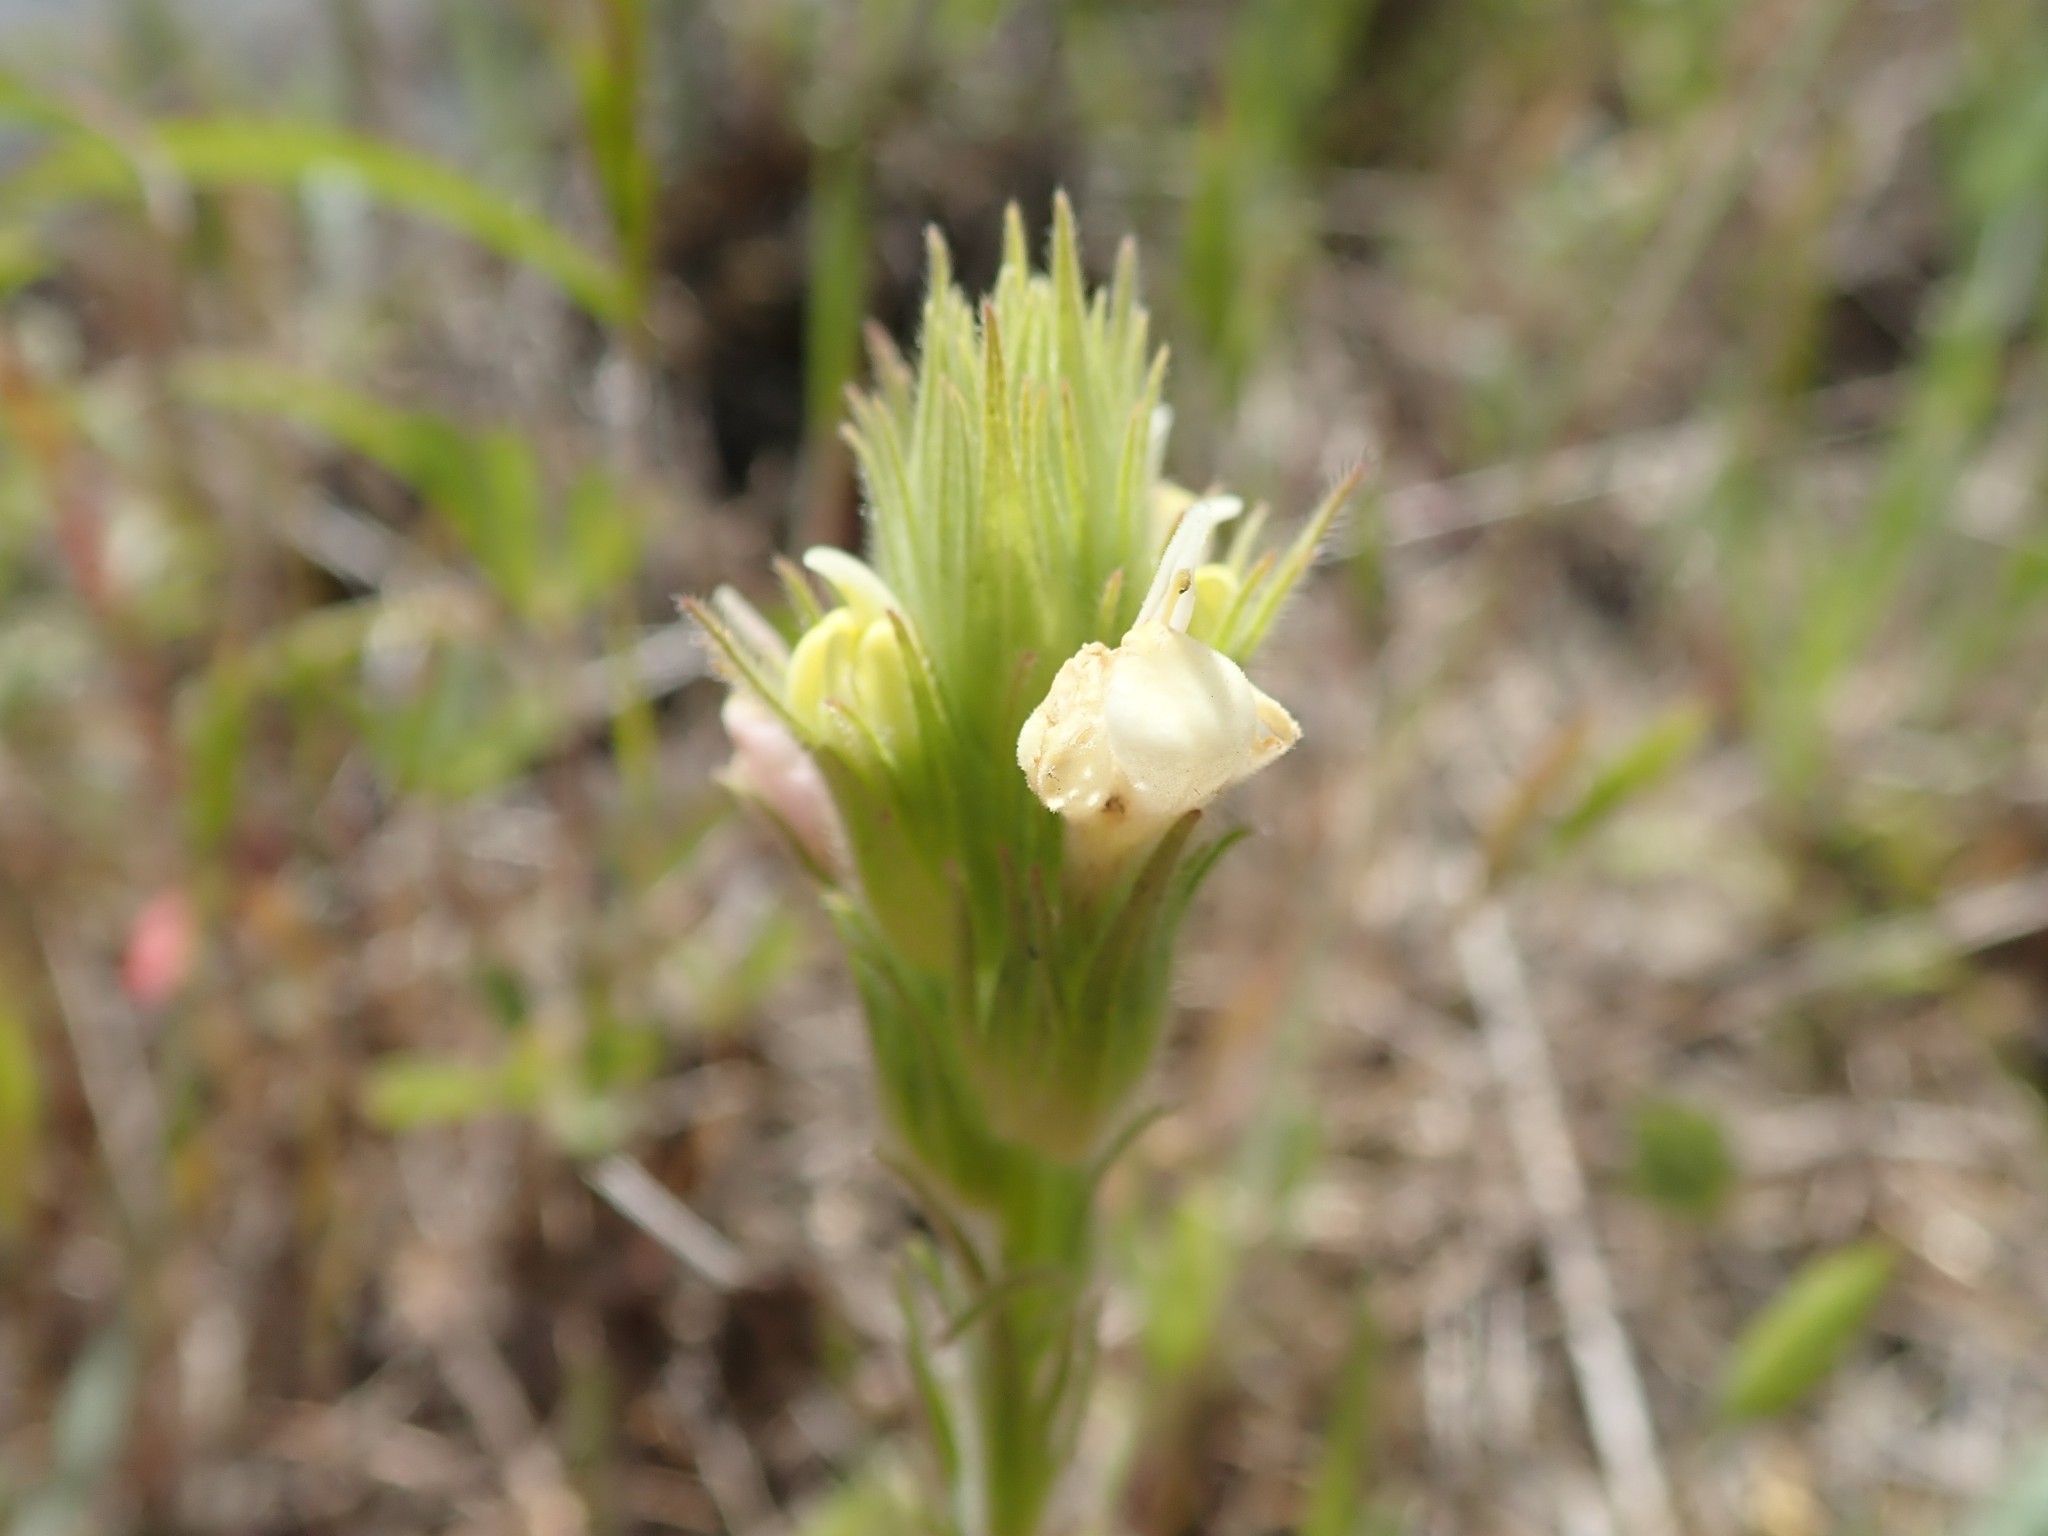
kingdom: Plantae
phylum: Tracheophyta
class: Magnoliopsida
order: Lamiales
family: Orobanchaceae
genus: Castilleja
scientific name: Castilleja rubicundula
